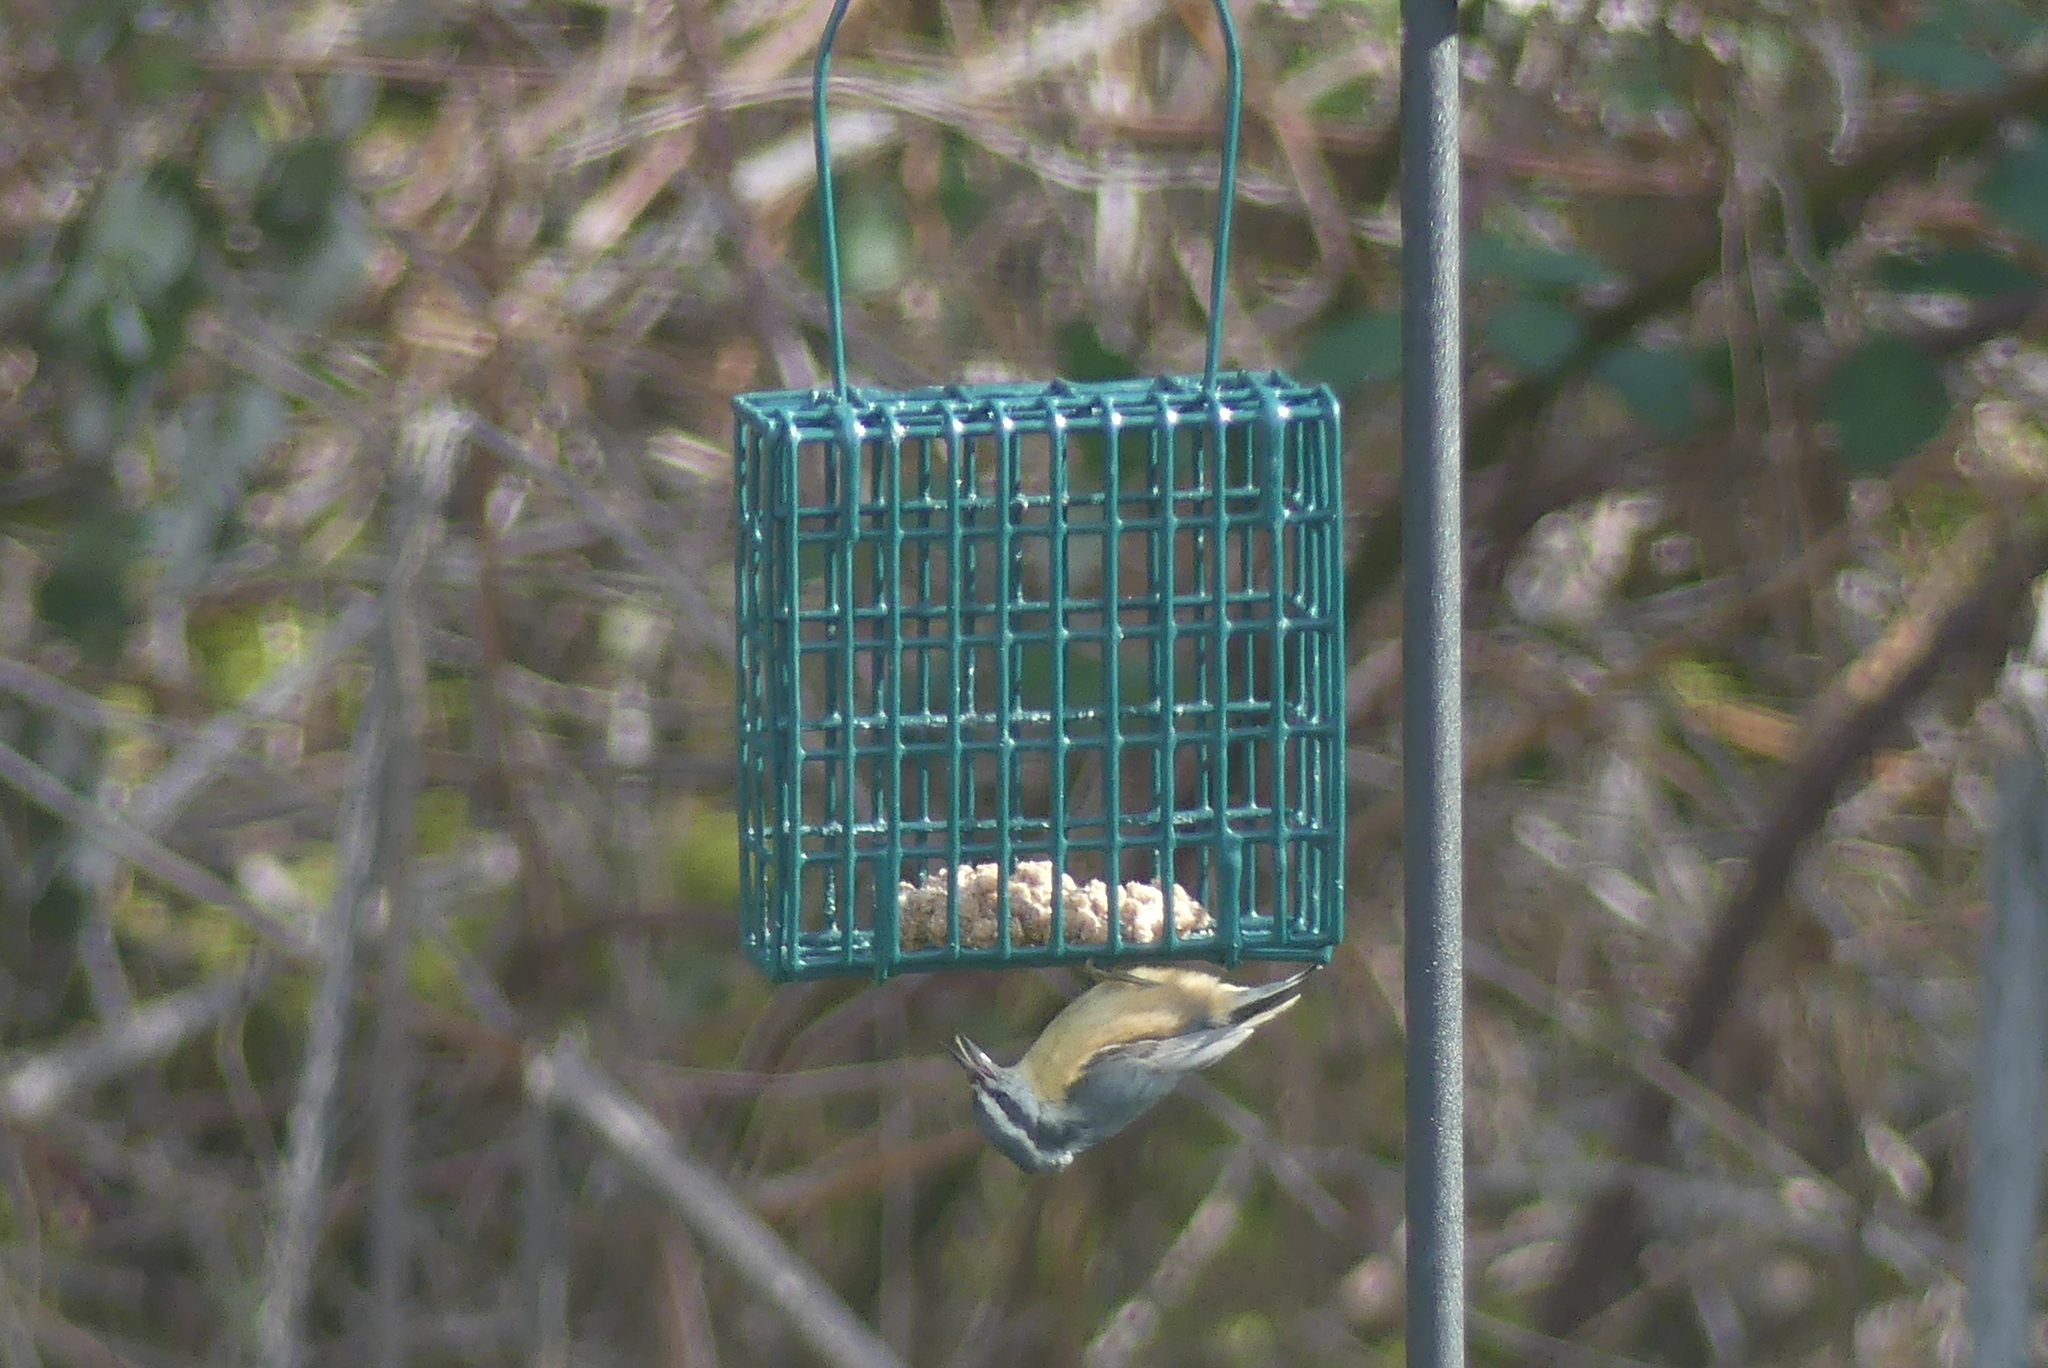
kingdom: Animalia
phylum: Chordata
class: Aves
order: Passeriformes
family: Sittidae
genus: Sitta
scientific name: Sitta canadensis
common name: Red-breasted nuthatch
